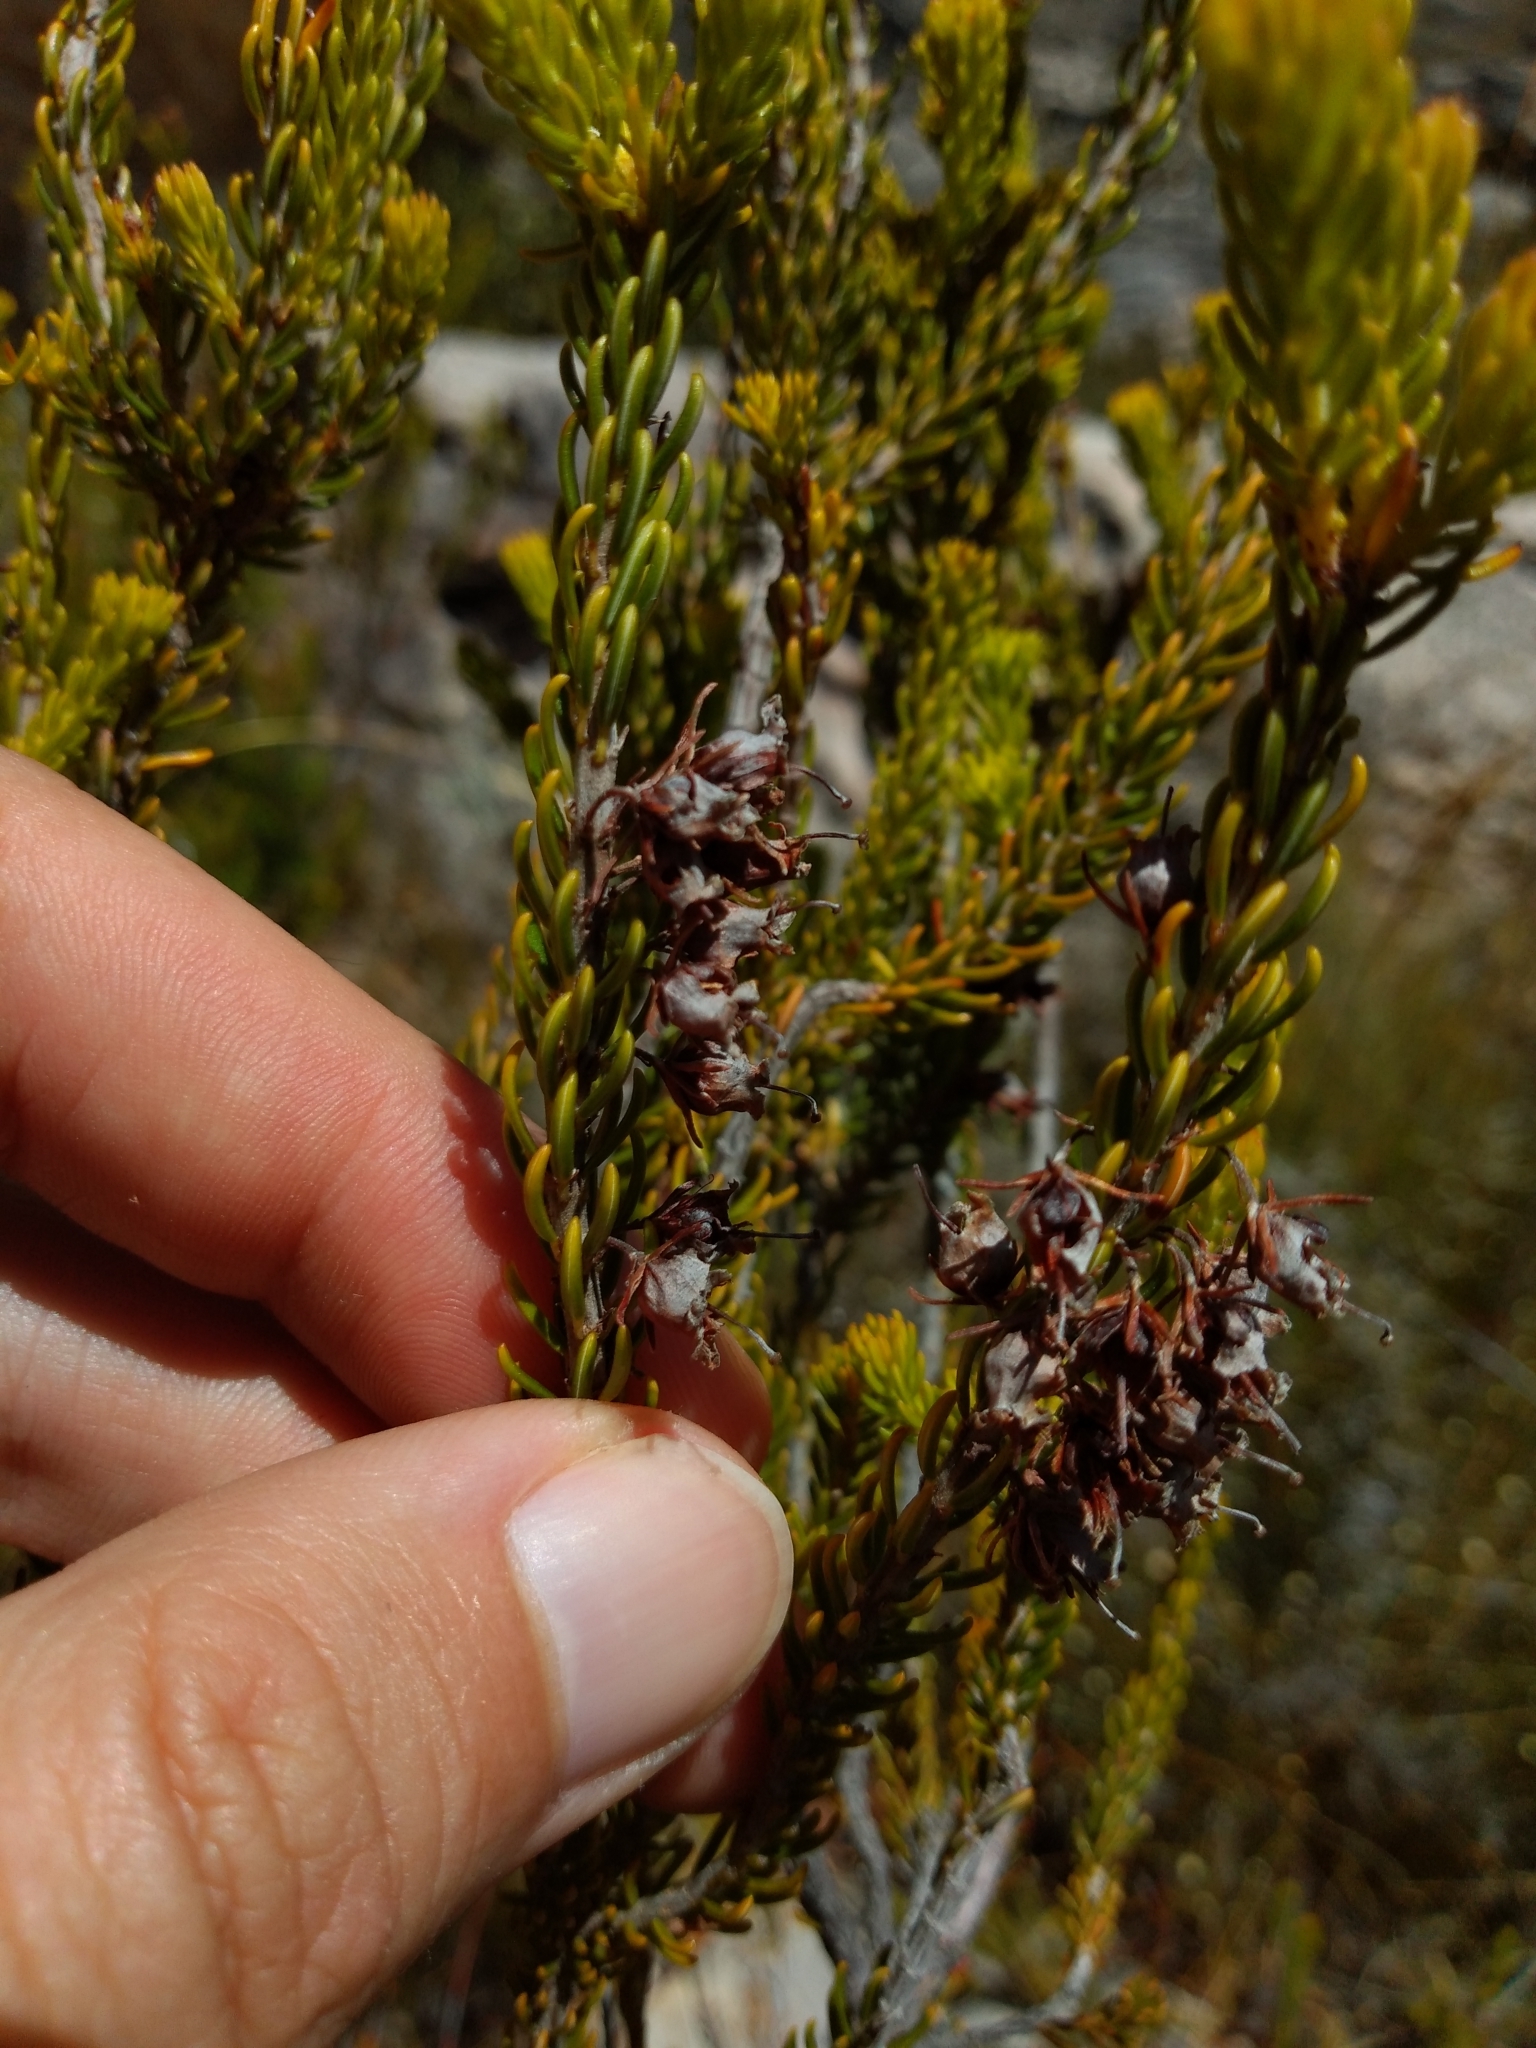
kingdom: Plantae
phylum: Tracheophyta
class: Magnoliopsida
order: Ericales
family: Ericaceae
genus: Erica
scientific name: Erica parilis
